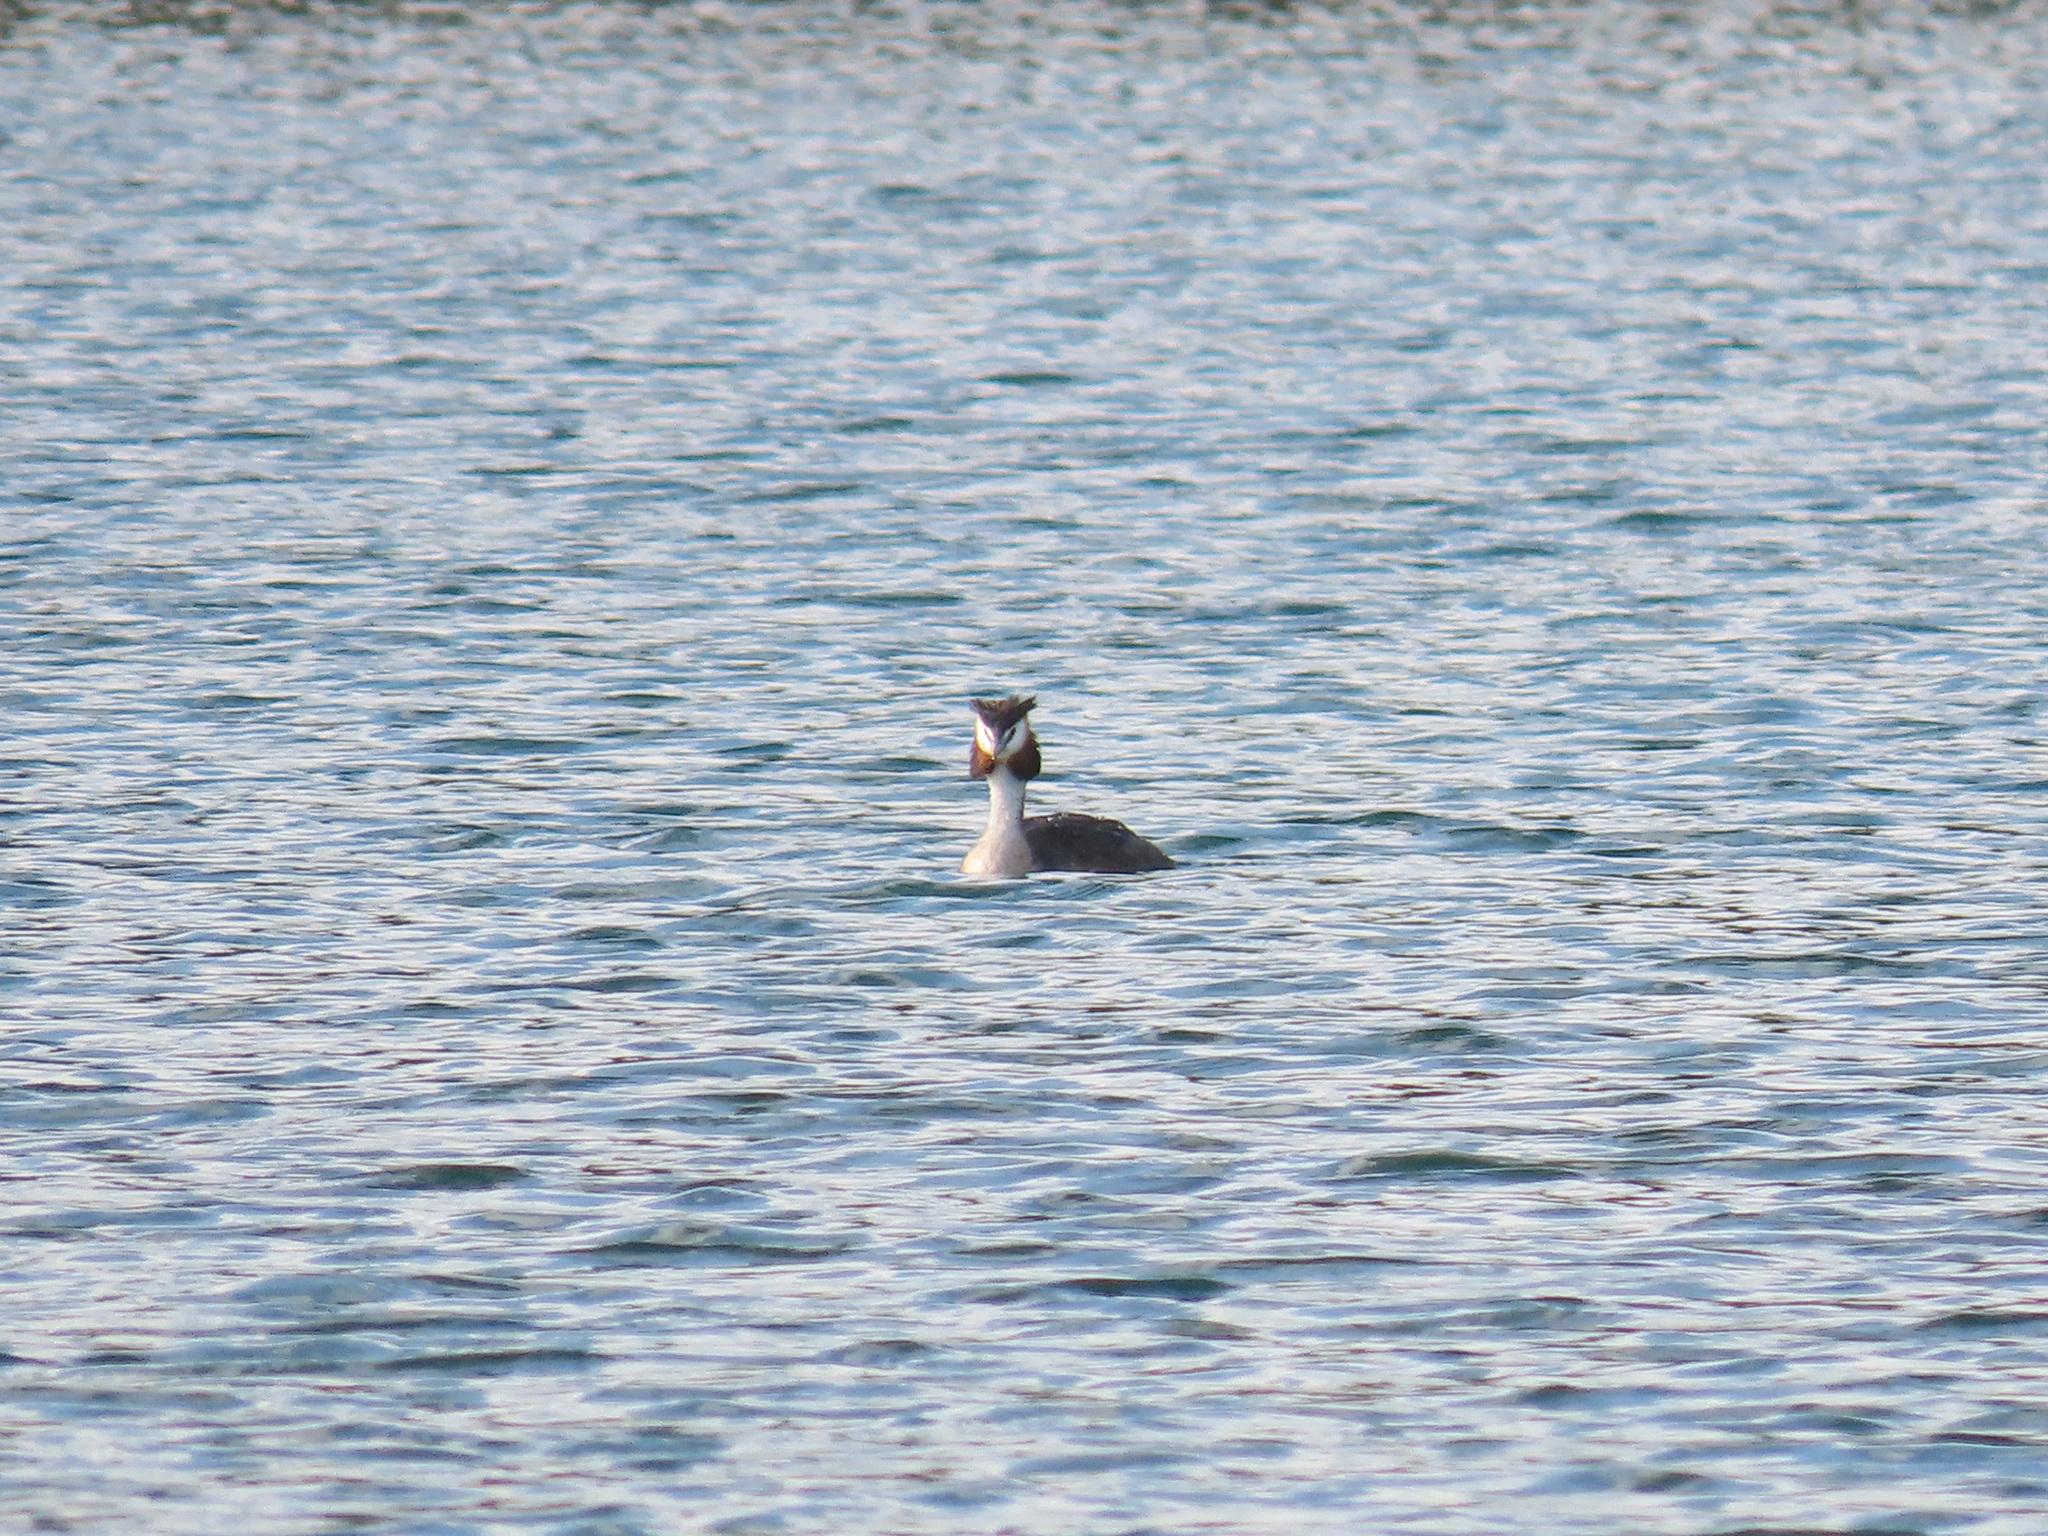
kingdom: Animalia
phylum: Chordata
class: Aves
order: Podicipediformes
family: Podicipedidae
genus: Podiceps
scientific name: Podiceps cristatus
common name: Great crested grebe
